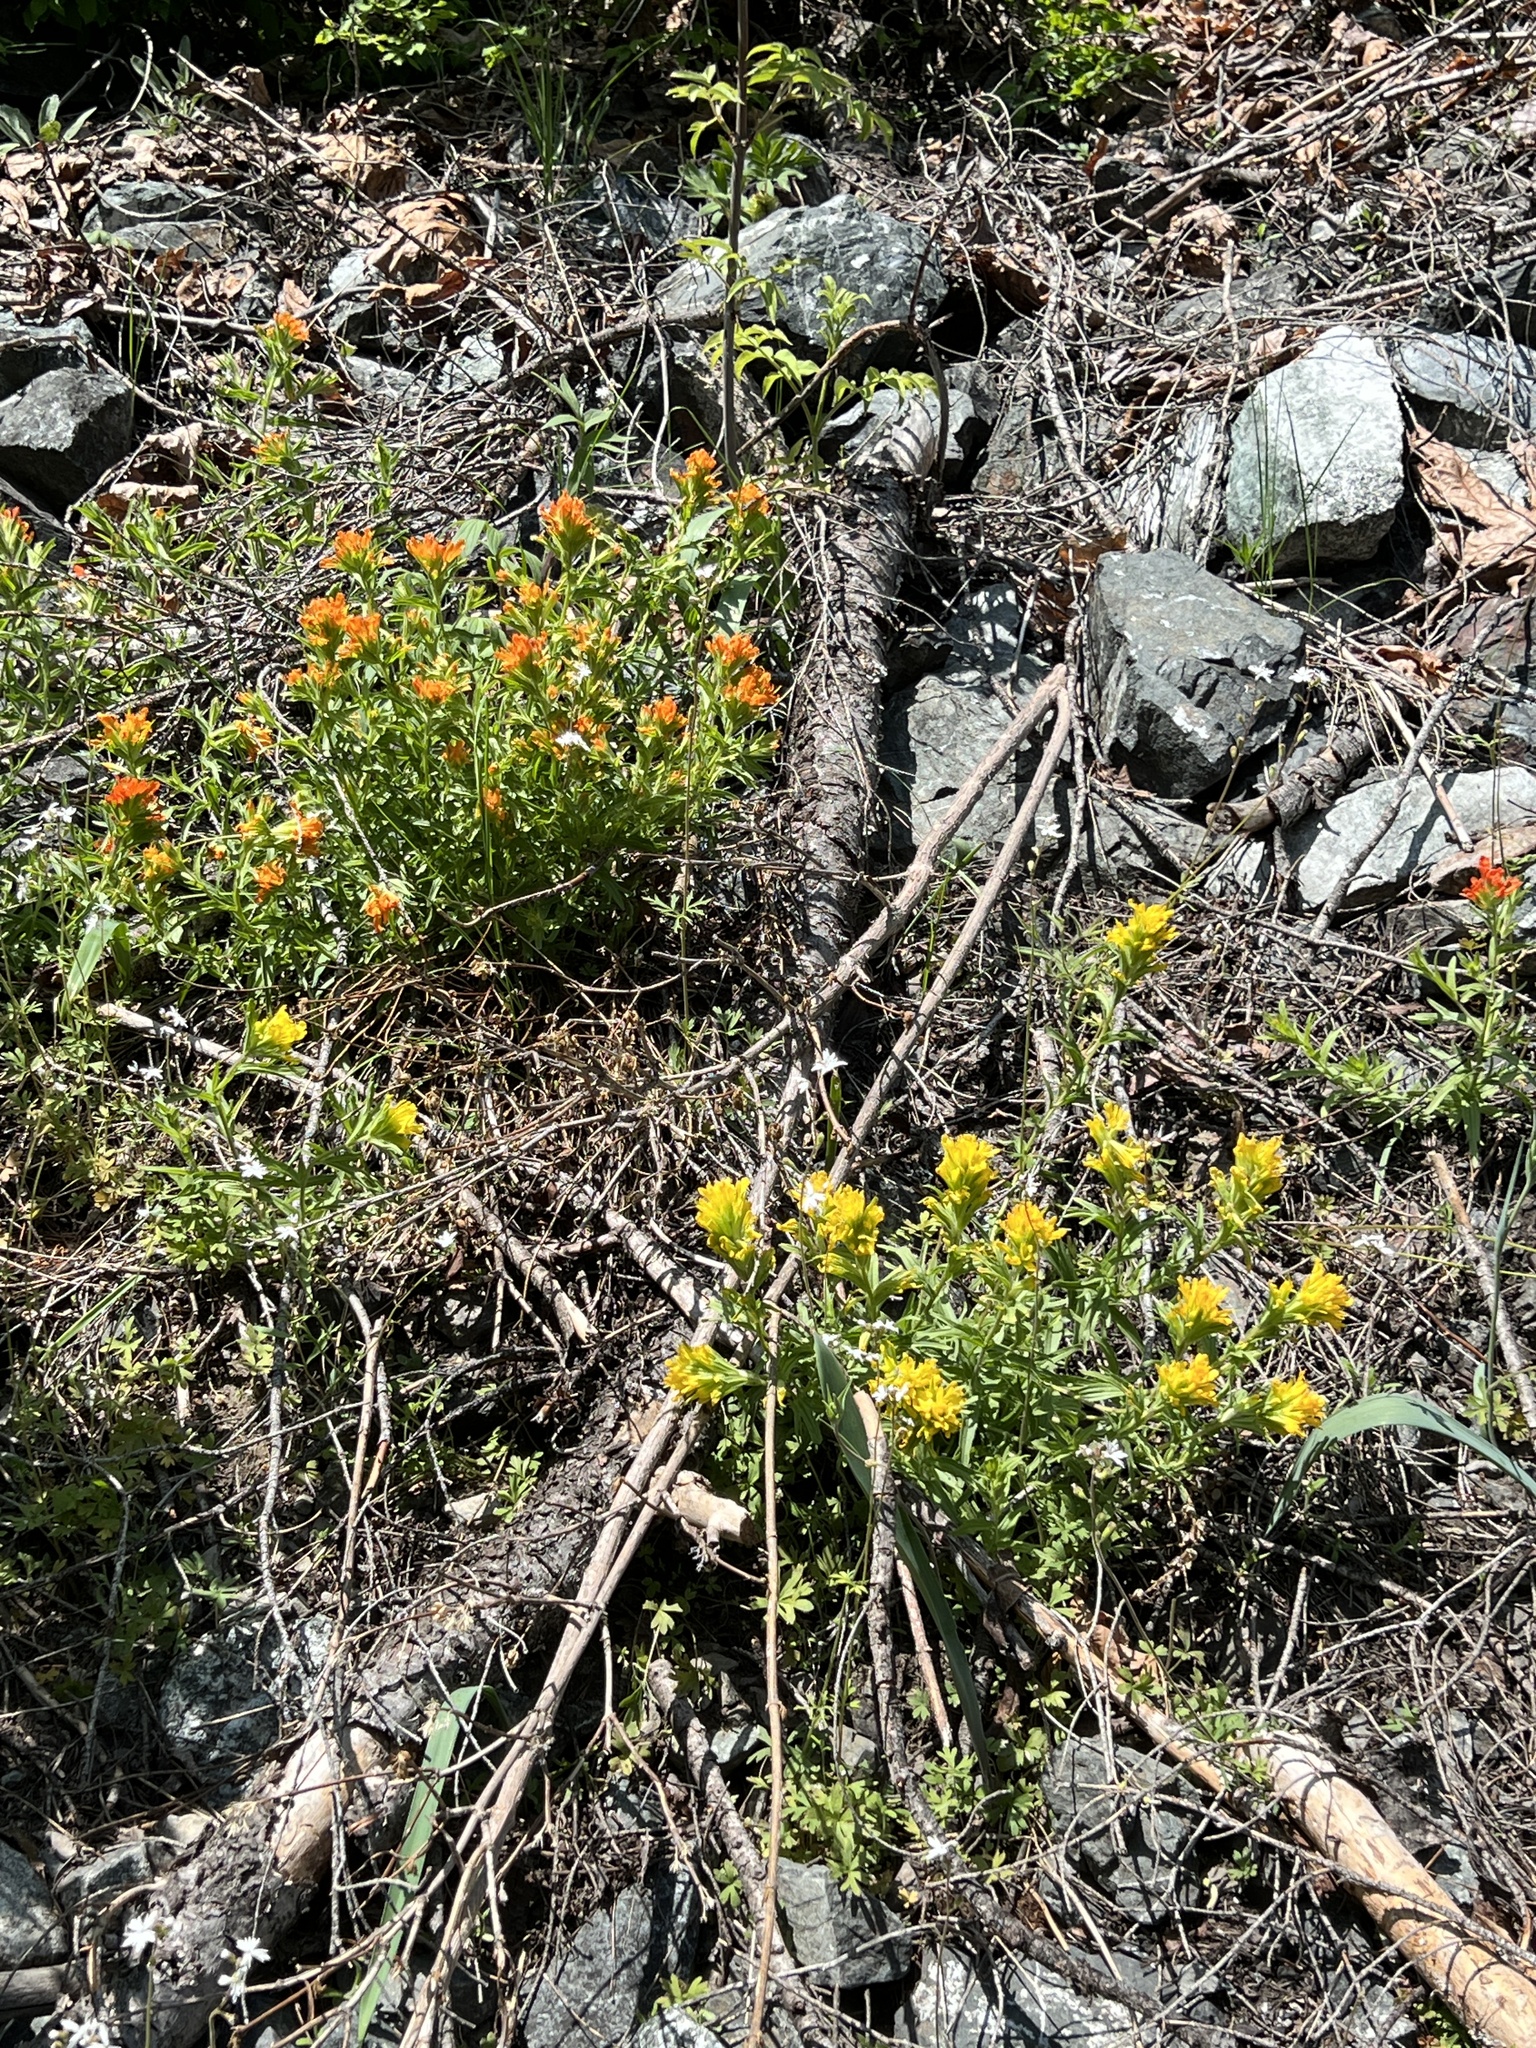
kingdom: Plantae
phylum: Tracheophyta
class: Magnoliopsida
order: Lamiales
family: Orobanchaceae
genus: Castilleja
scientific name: Castilleja hispida
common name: Bristly paintbrush
